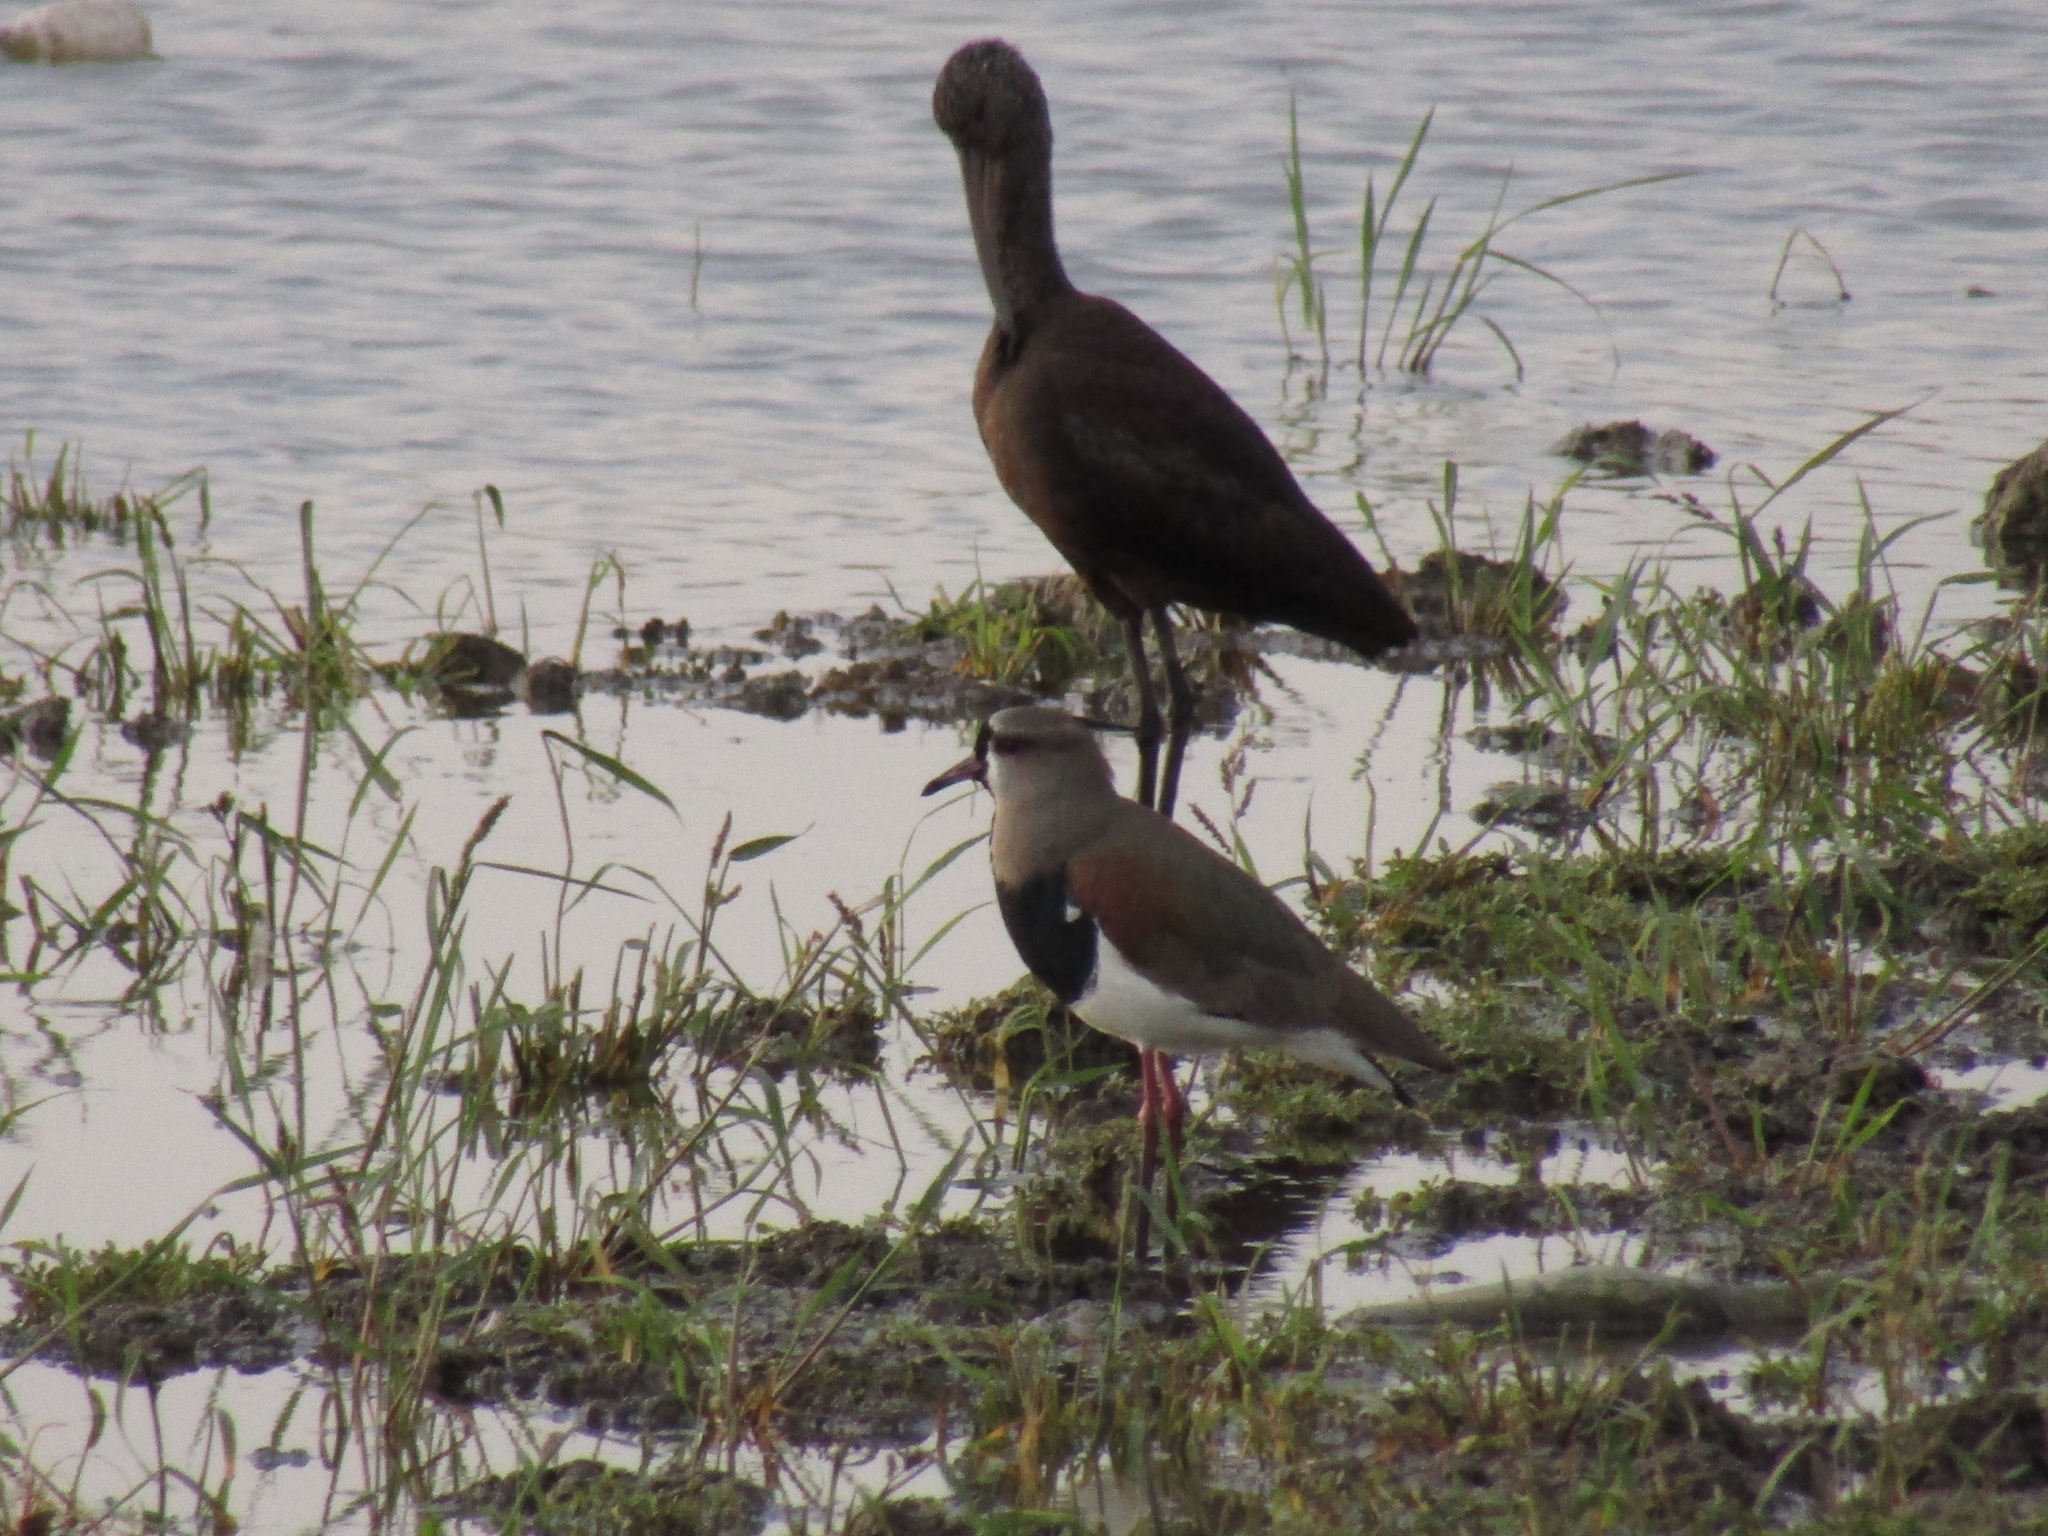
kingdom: Animalia
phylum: Chordata
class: Aves
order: Charadriiformes
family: Charadriidae
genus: Vanellus
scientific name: Vanellus chilensis
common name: Southern lapwing
